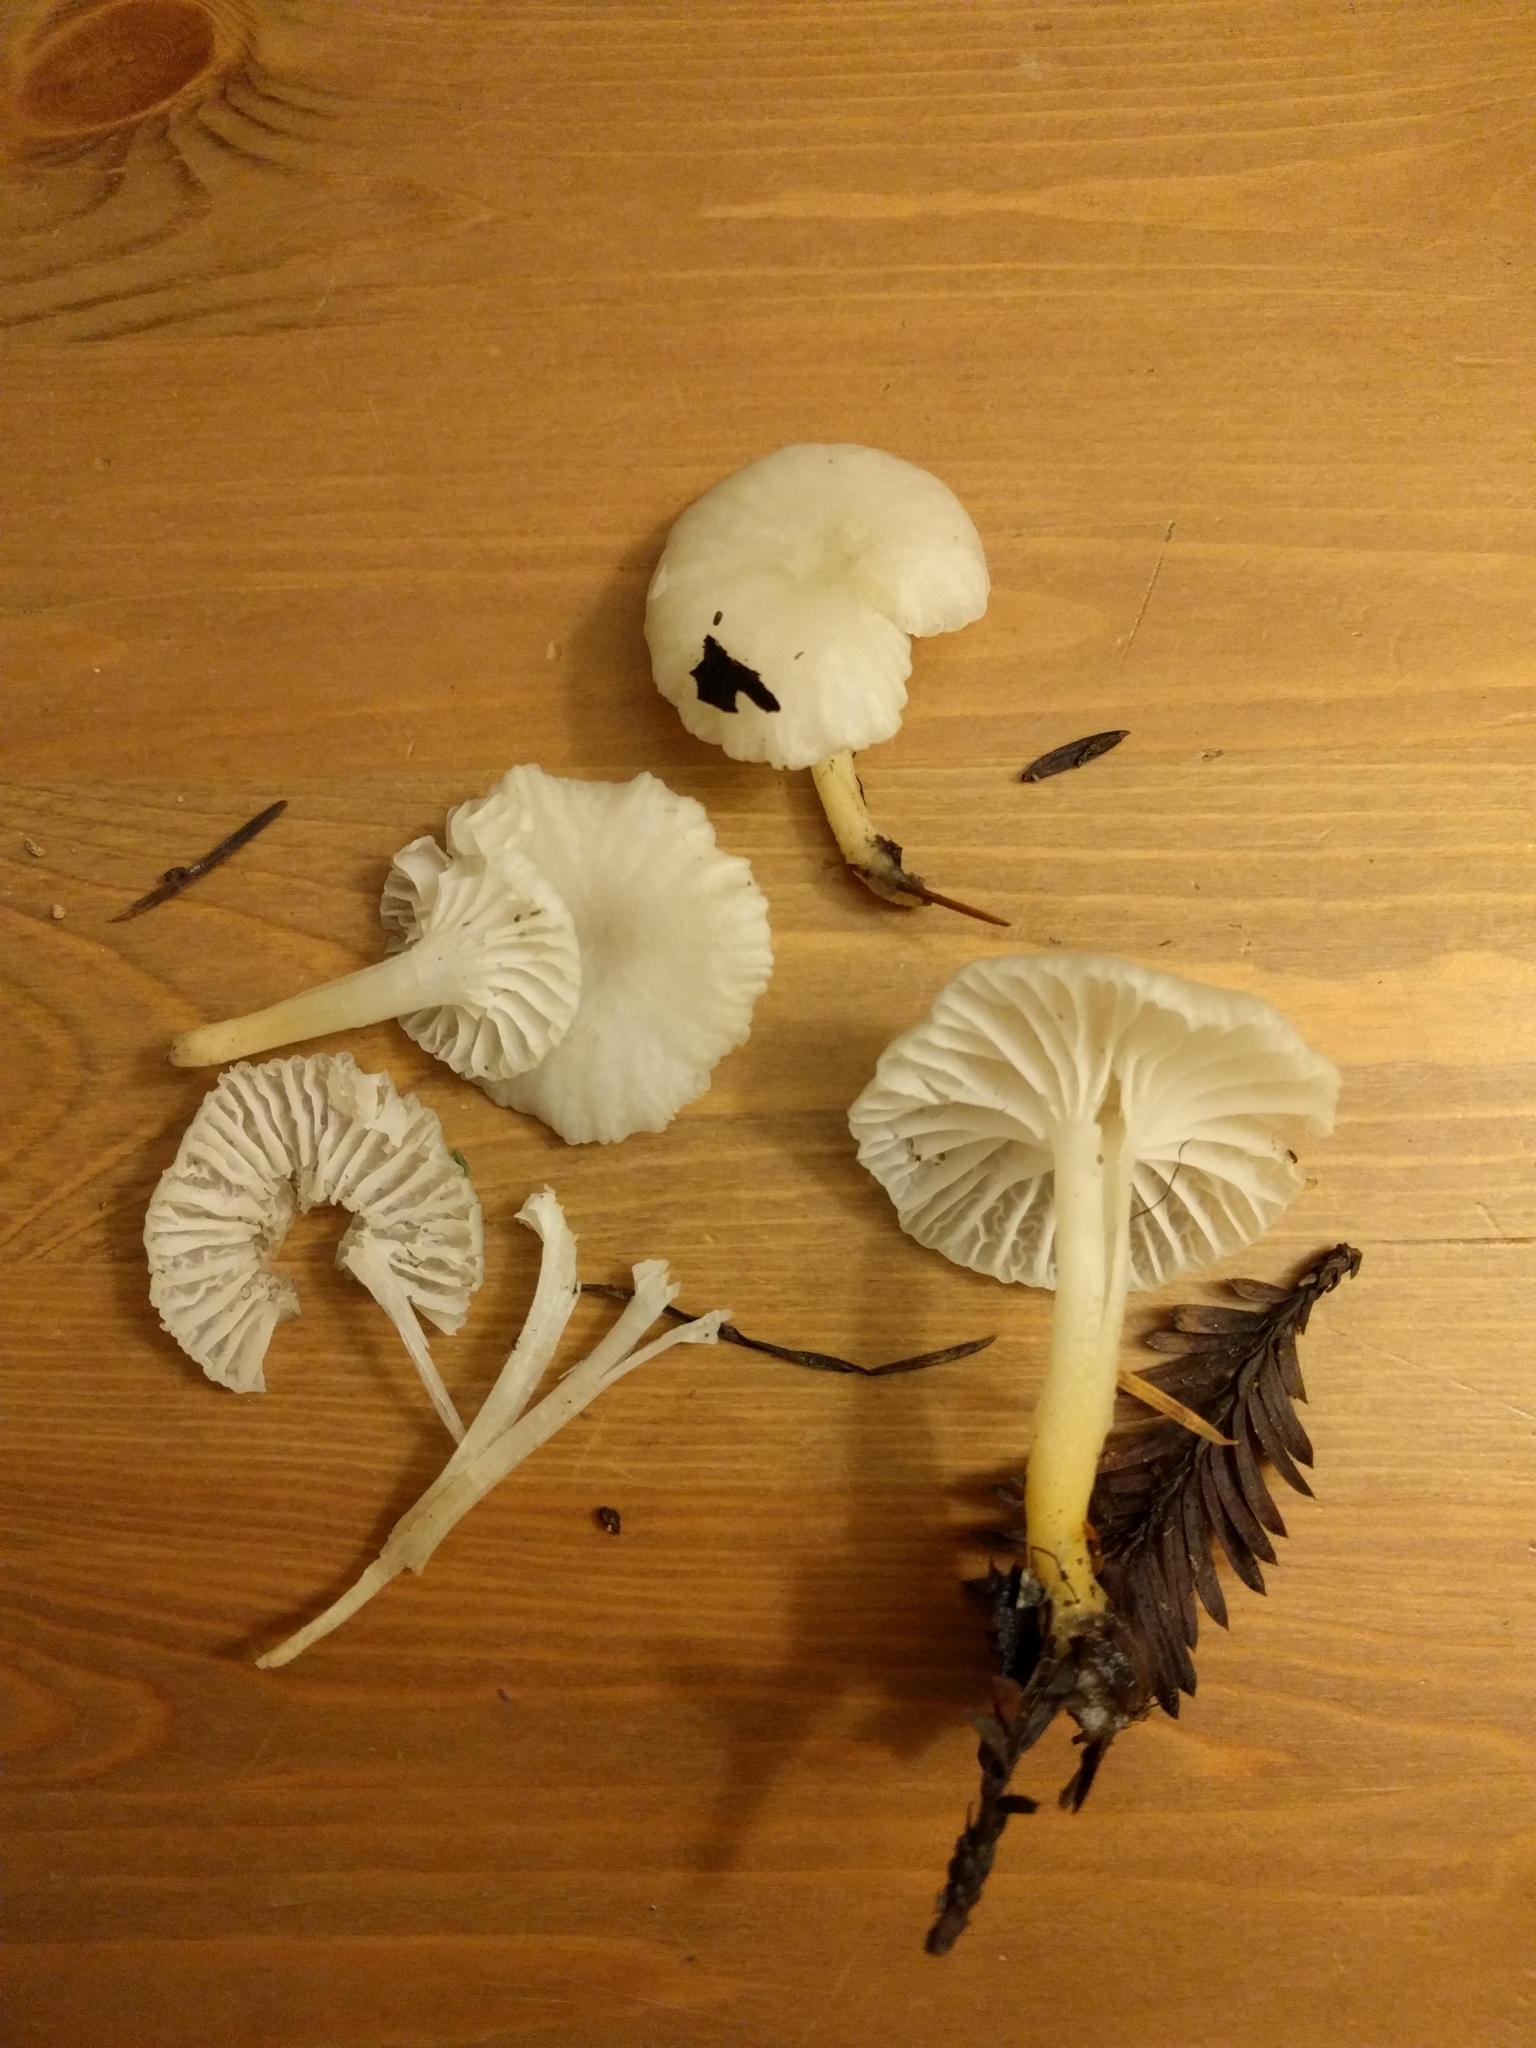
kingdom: Fungi
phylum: Basidiomycota
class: Agaricomycetes
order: Agaricales
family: Marasmiaceae
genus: Marasmius
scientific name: Marasmius calhouniae
